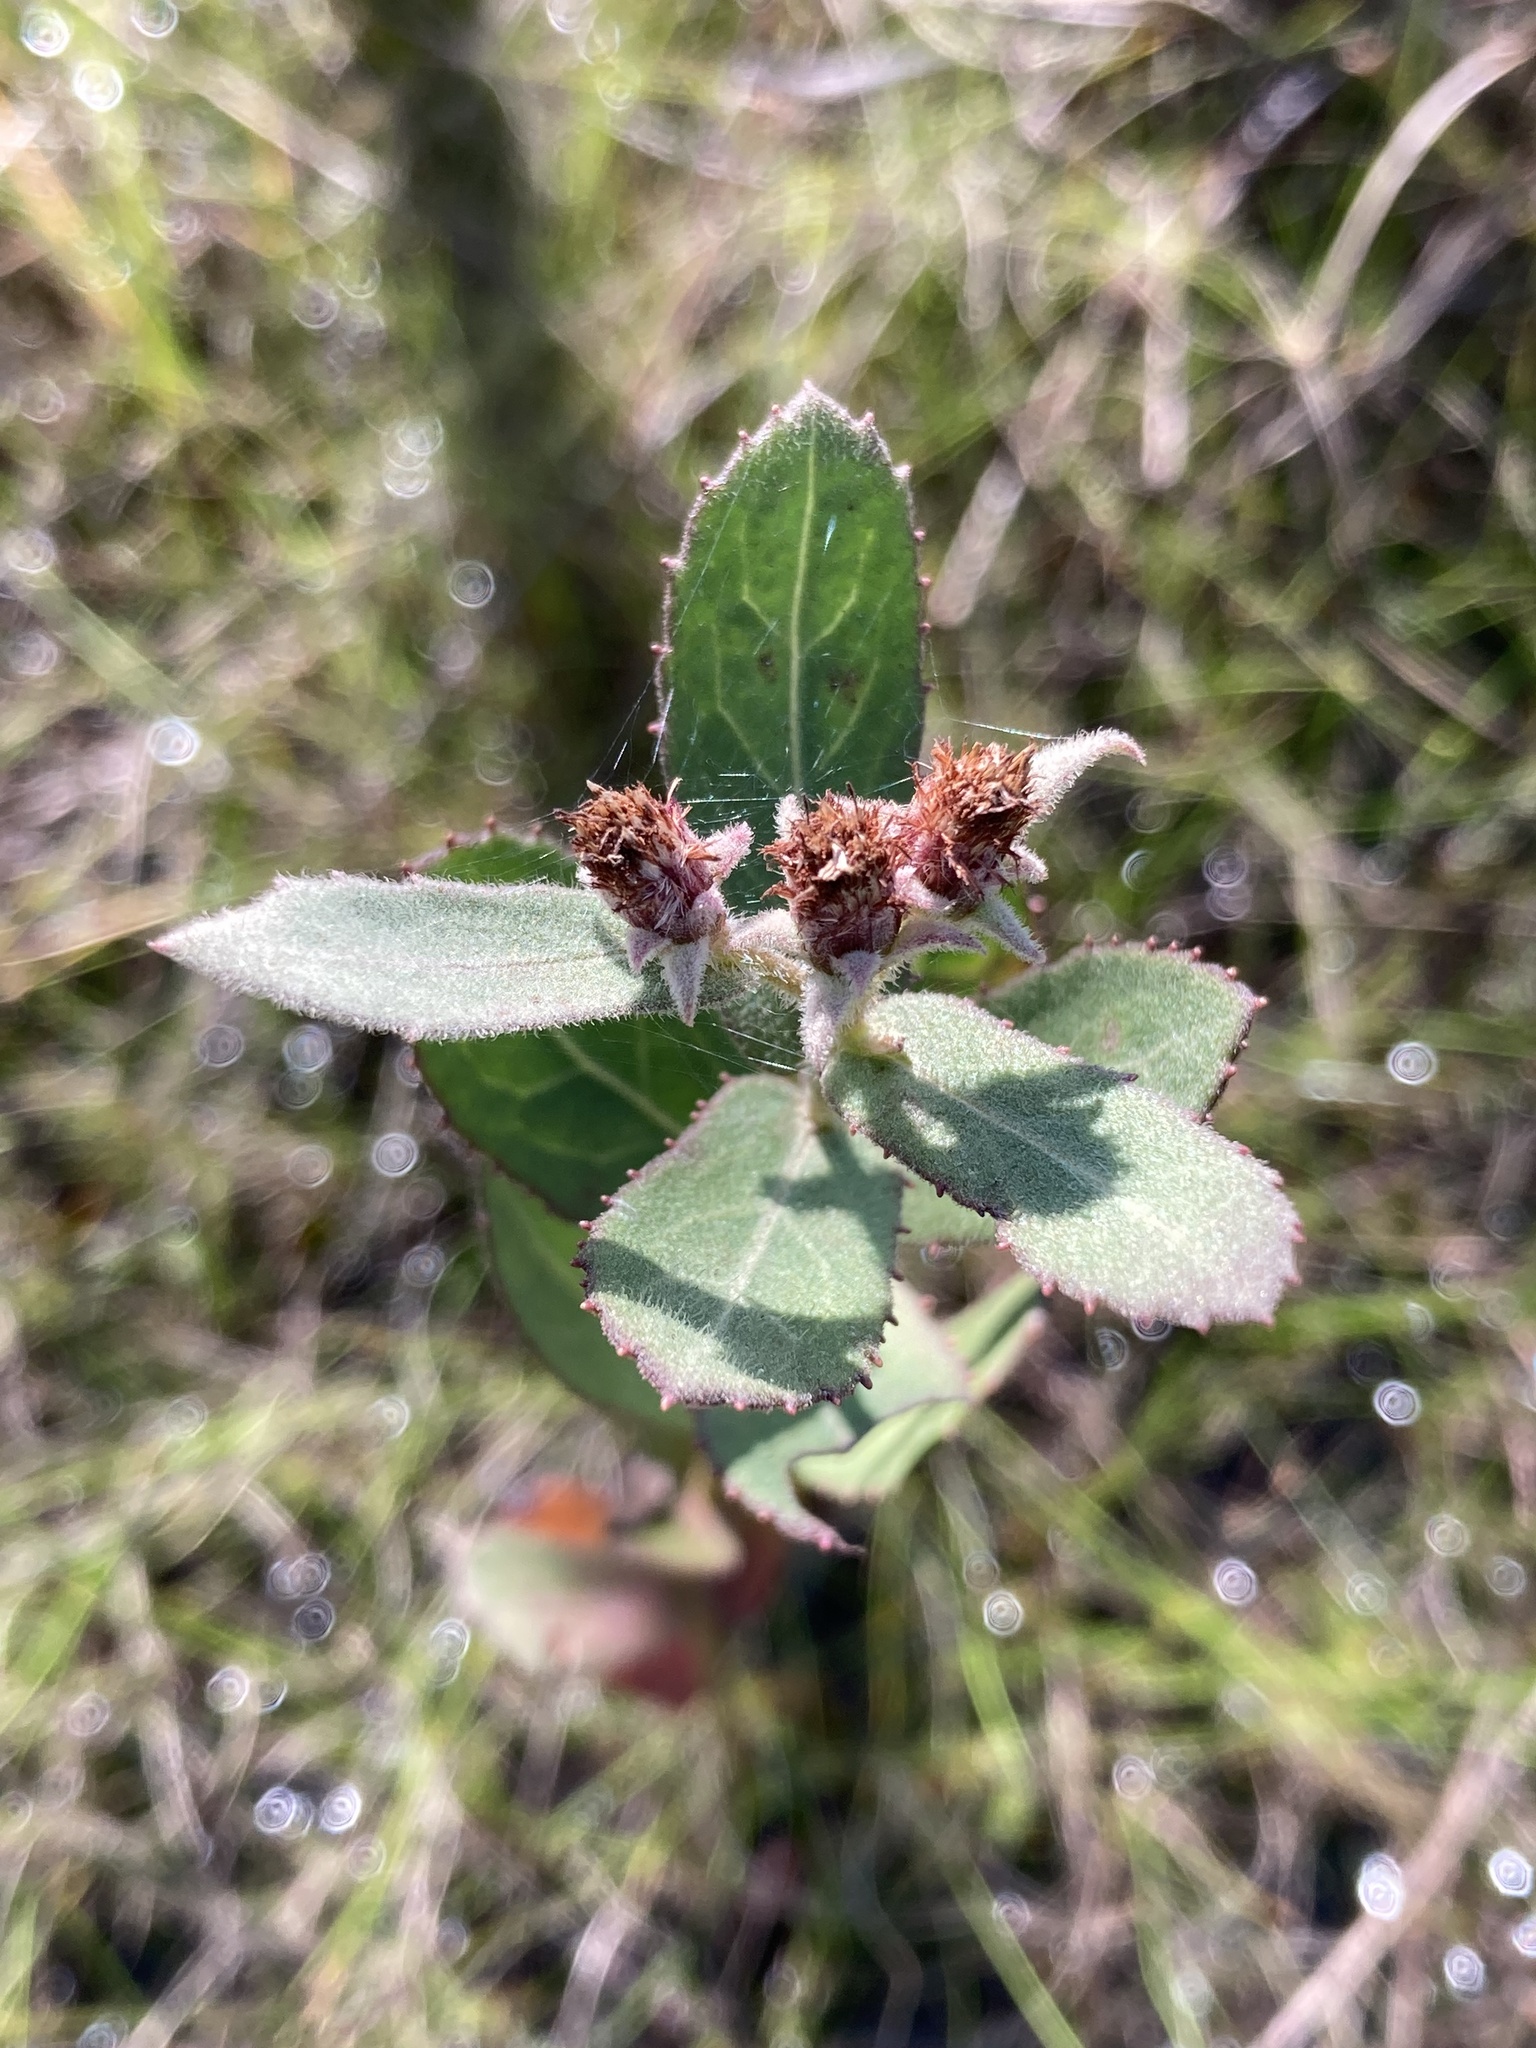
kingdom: Plantae
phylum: Tracheophyta
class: Magnoliopsida
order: Asterales
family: Asteraceae
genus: Pluchea
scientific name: Pluchea baccharis
